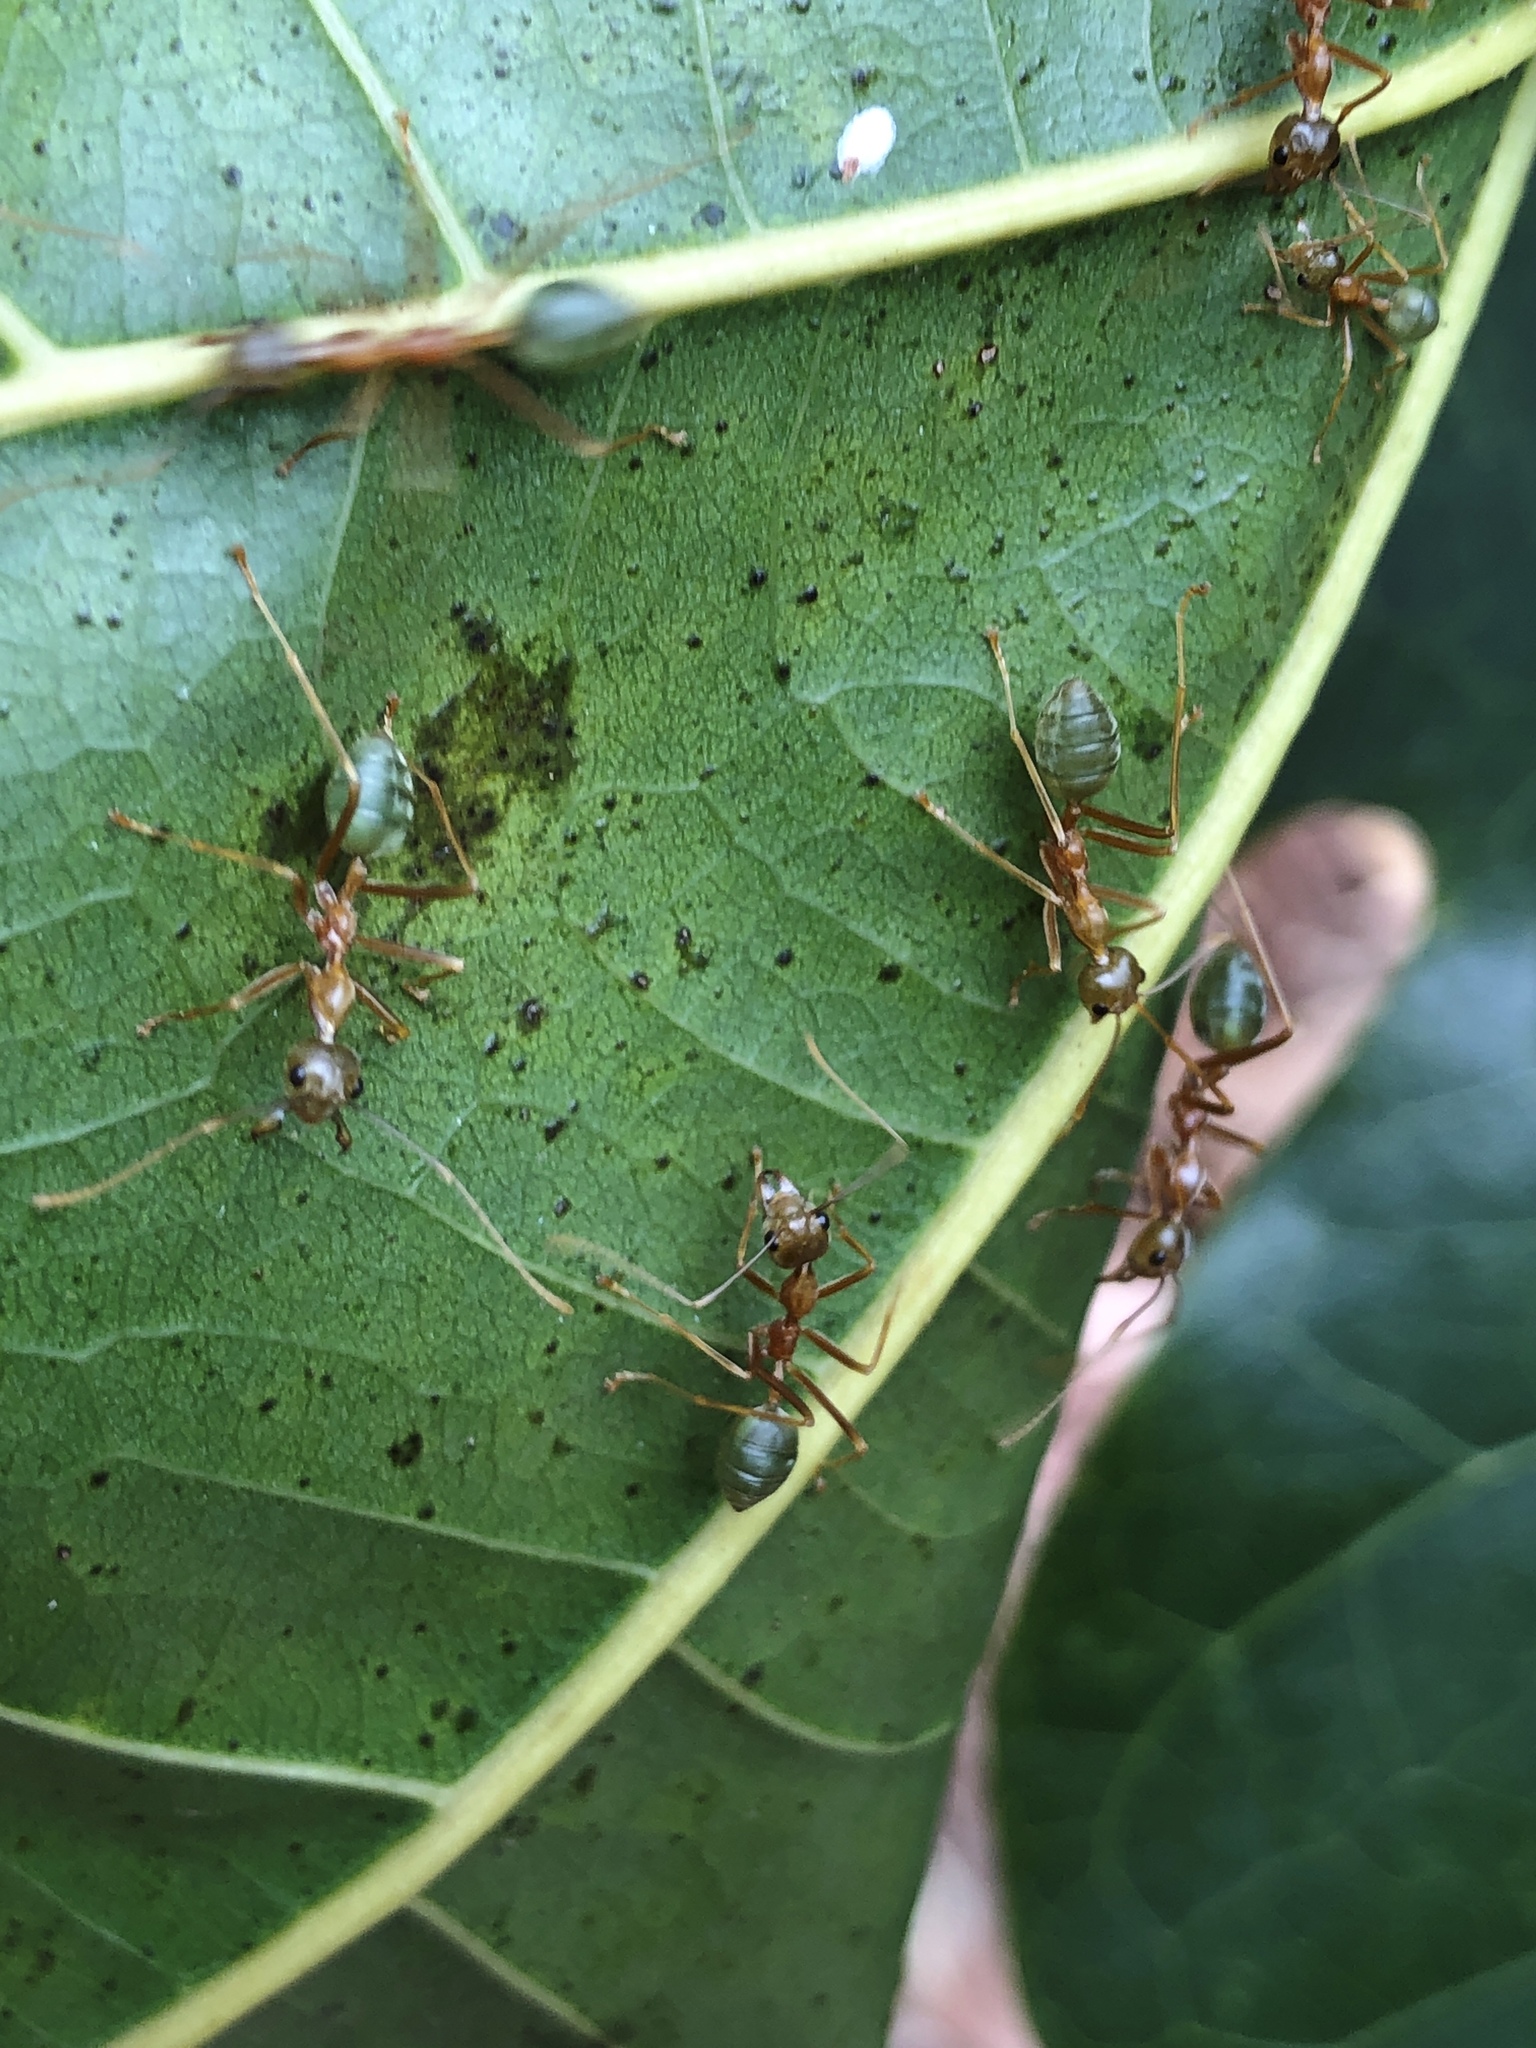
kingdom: Animalia
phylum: Arthropoda
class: Insecta
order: Hymenoptera
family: Formicidae
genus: Oecophylla
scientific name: Oecophylla smaragdina
